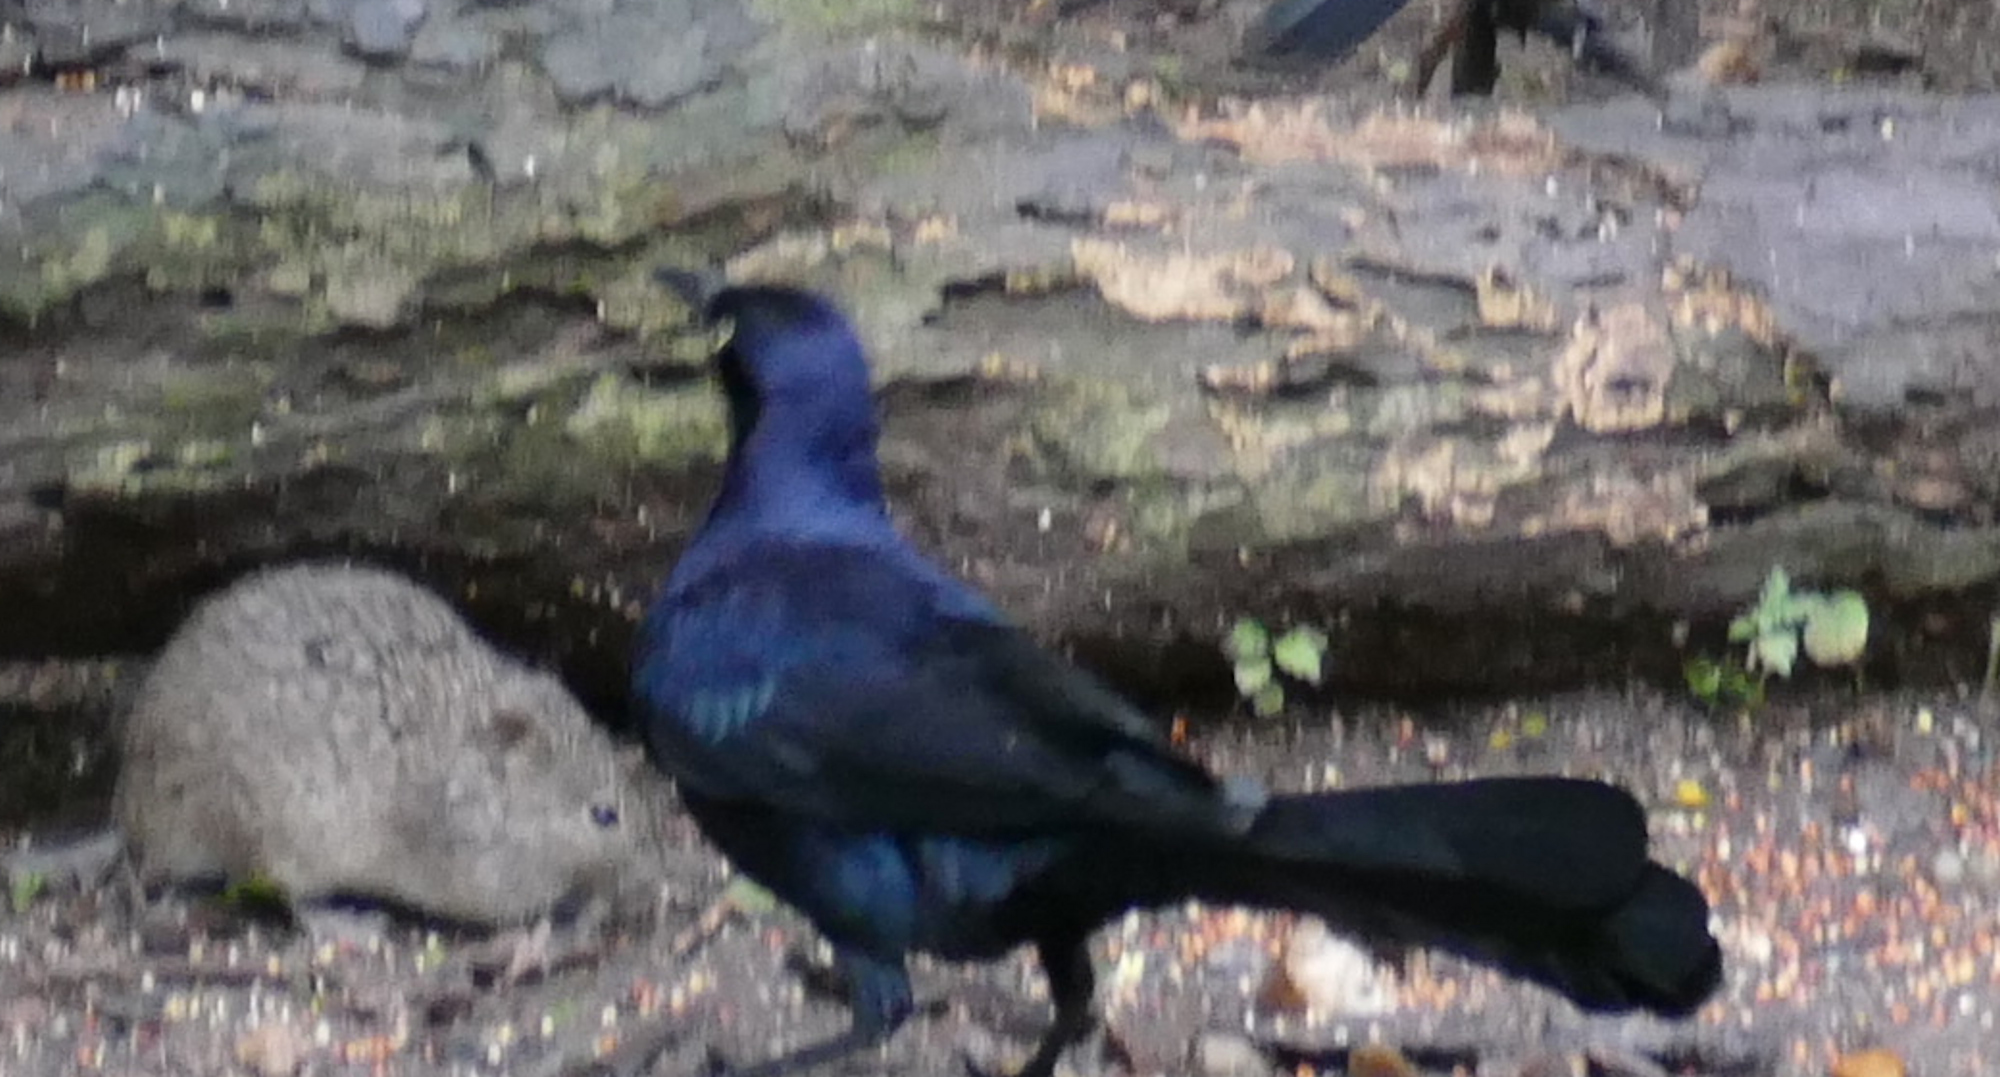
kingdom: Animalia
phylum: Chordata
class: Aves
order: Passeriformes
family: Icteridae
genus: Quiscalus
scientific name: Quiscalus mexicanus
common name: Great-tailed grackle
